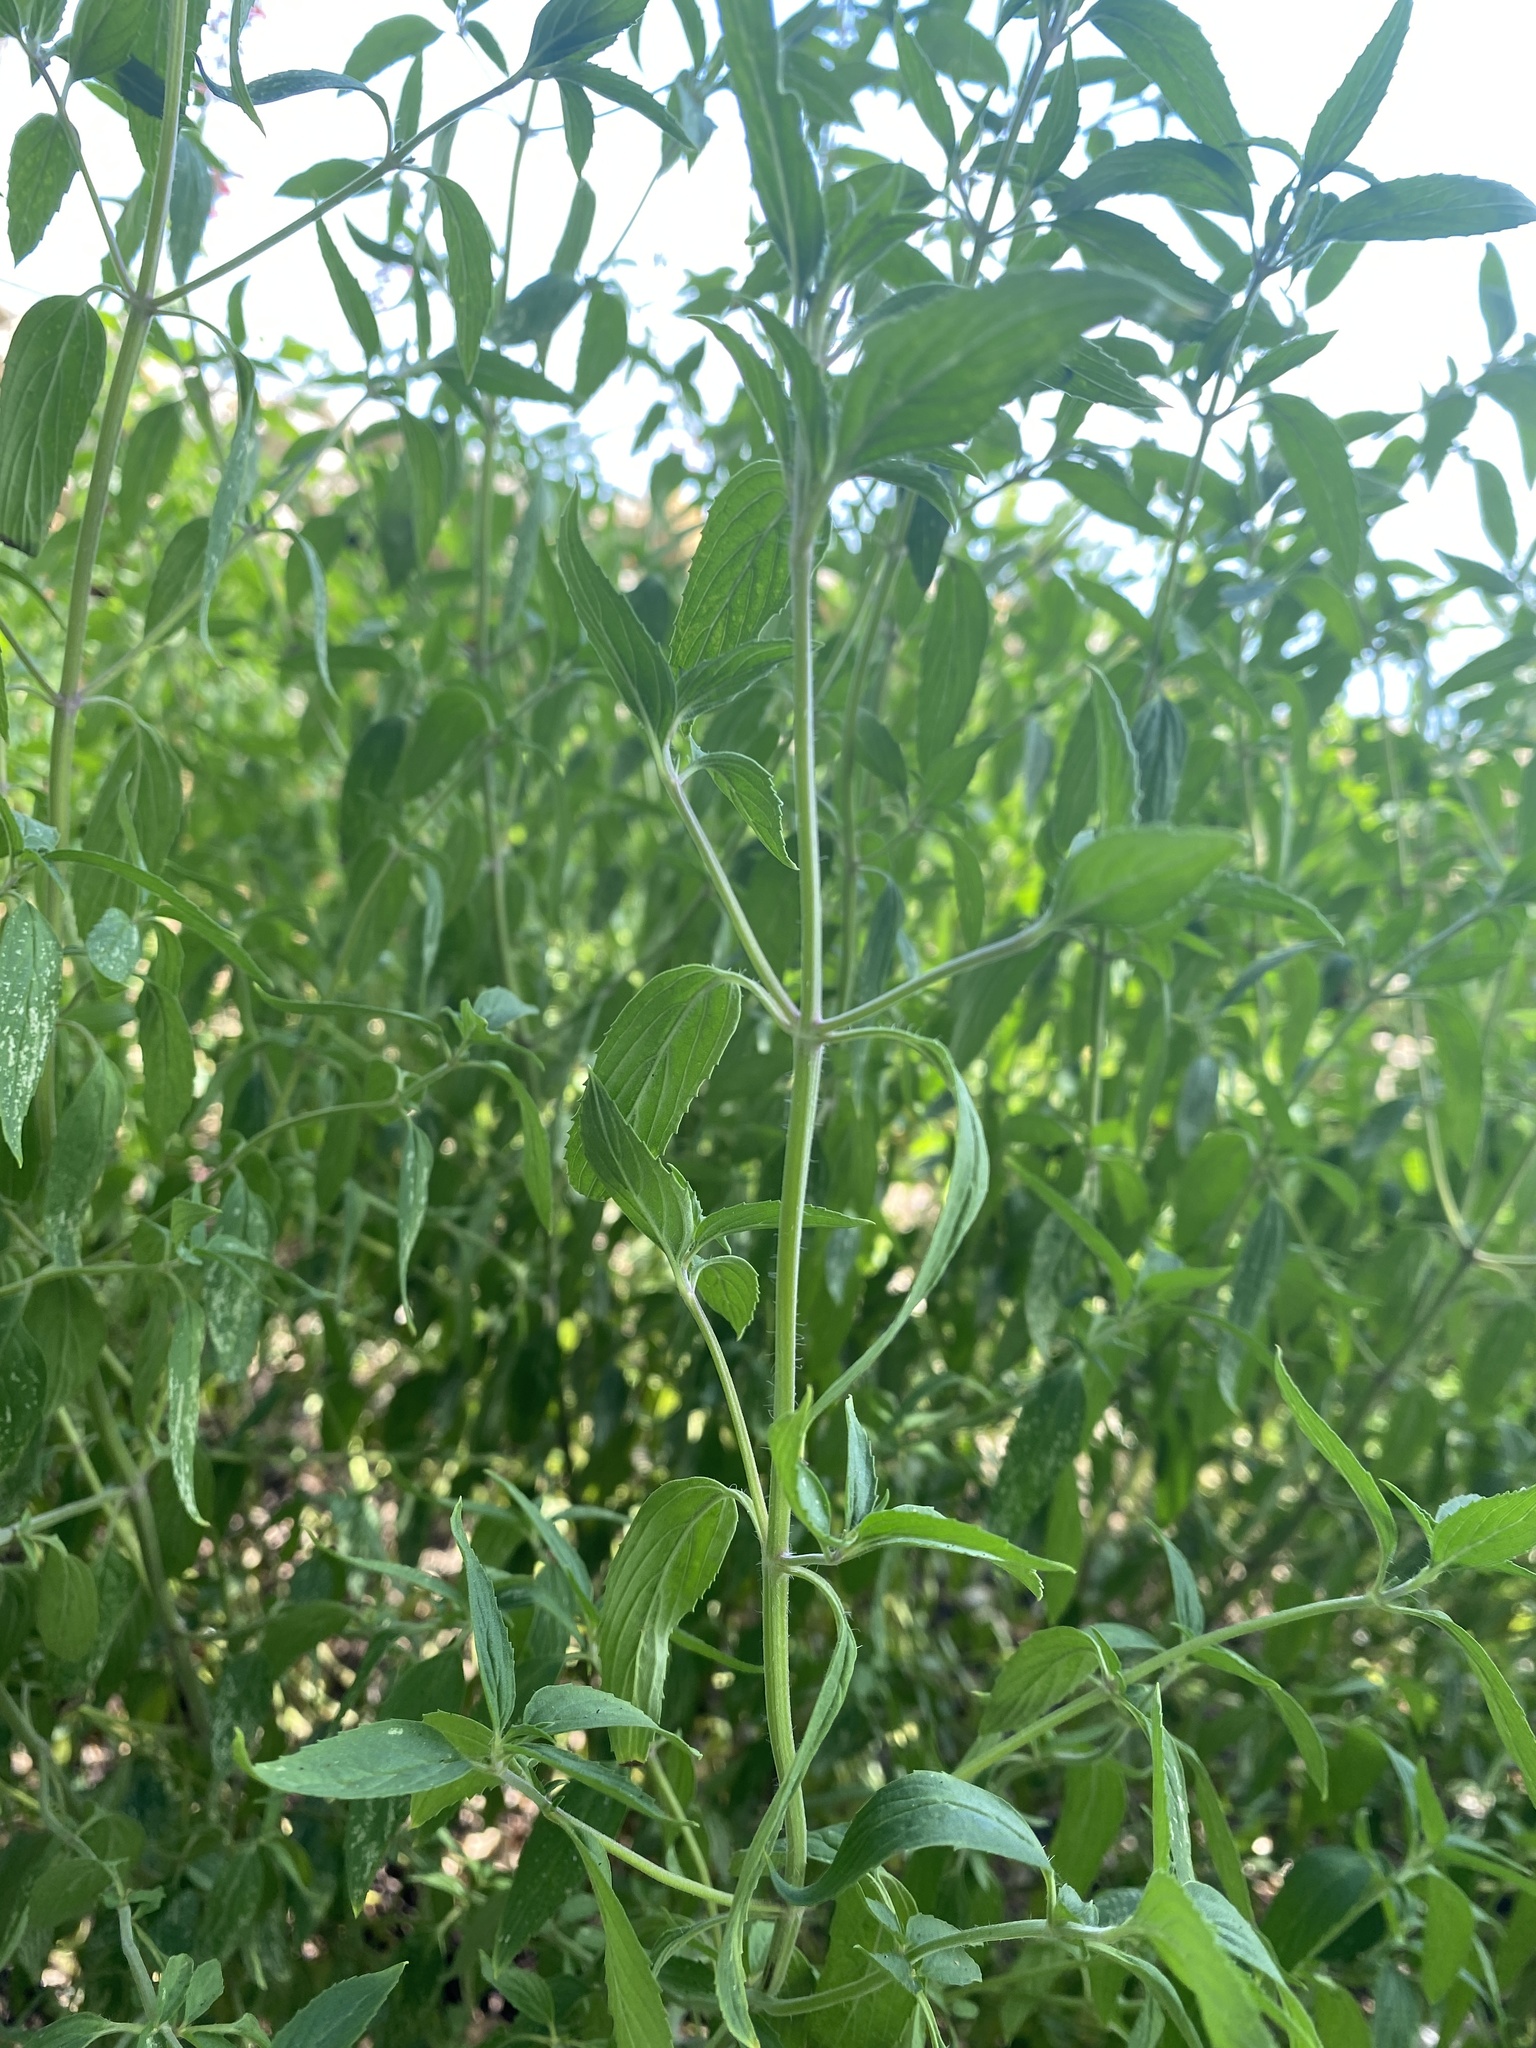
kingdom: Plantae
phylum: Tracheophyta
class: Magnoliopsida
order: Lamiales
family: Lamiaceae
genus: Monarda
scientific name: Monarda punctata
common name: Dotted monarda
